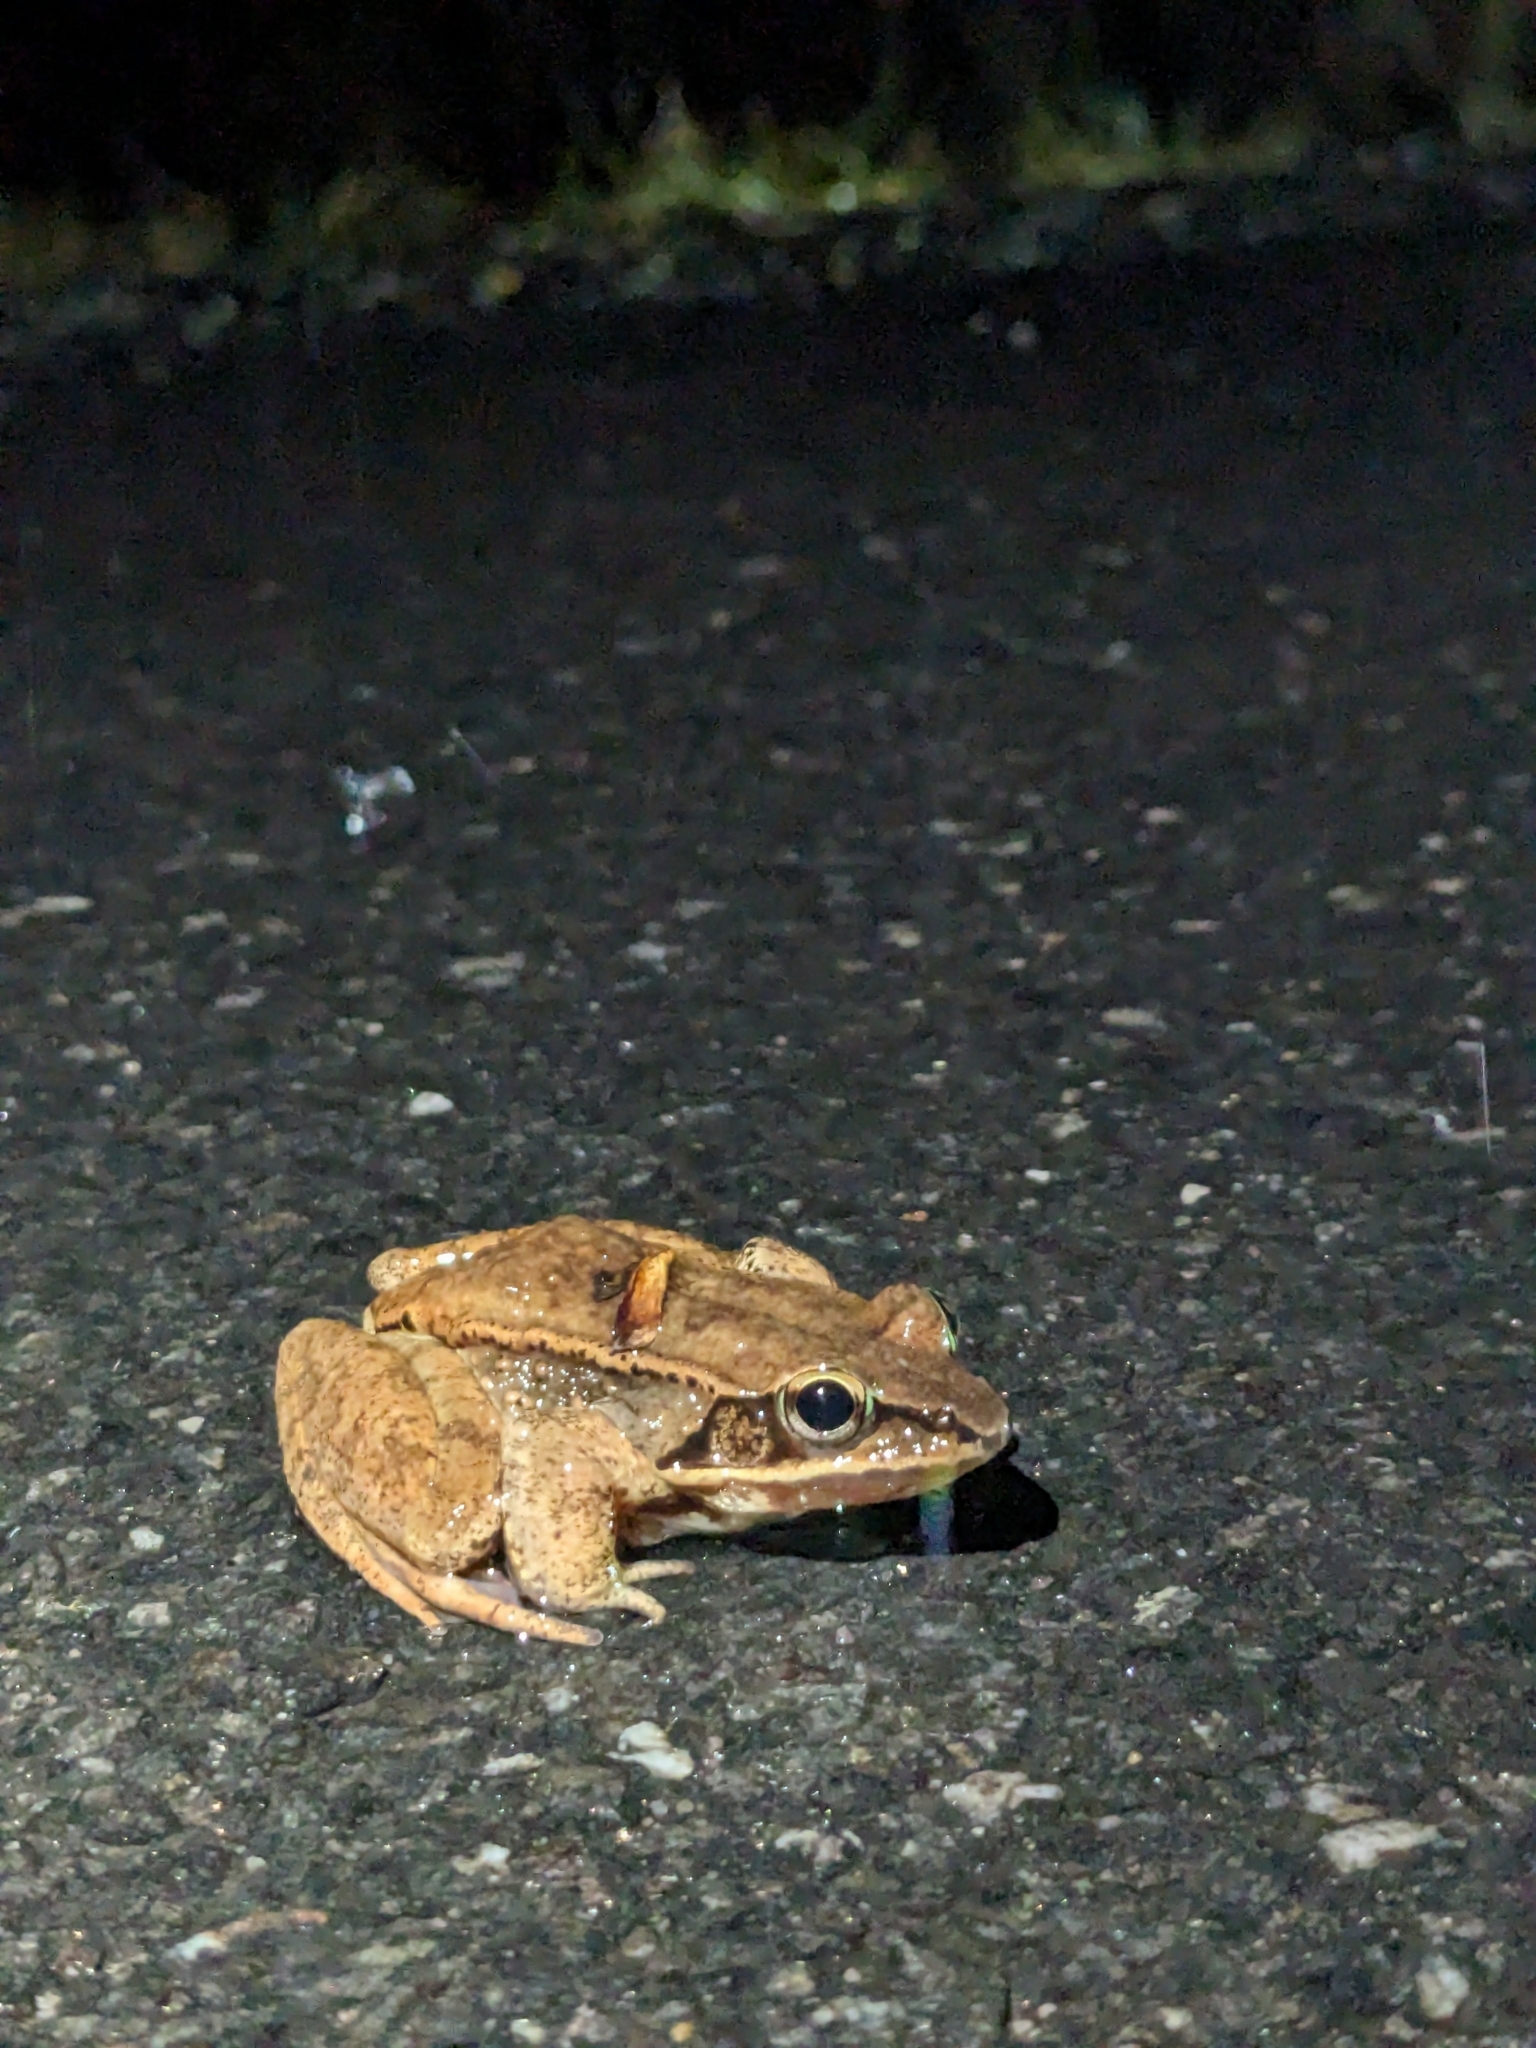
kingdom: Animalia
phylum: Chordata
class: Amphibia
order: Anura
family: Ranidae
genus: Lithobates
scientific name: Lithobates sylvaticus
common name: Wood frog
